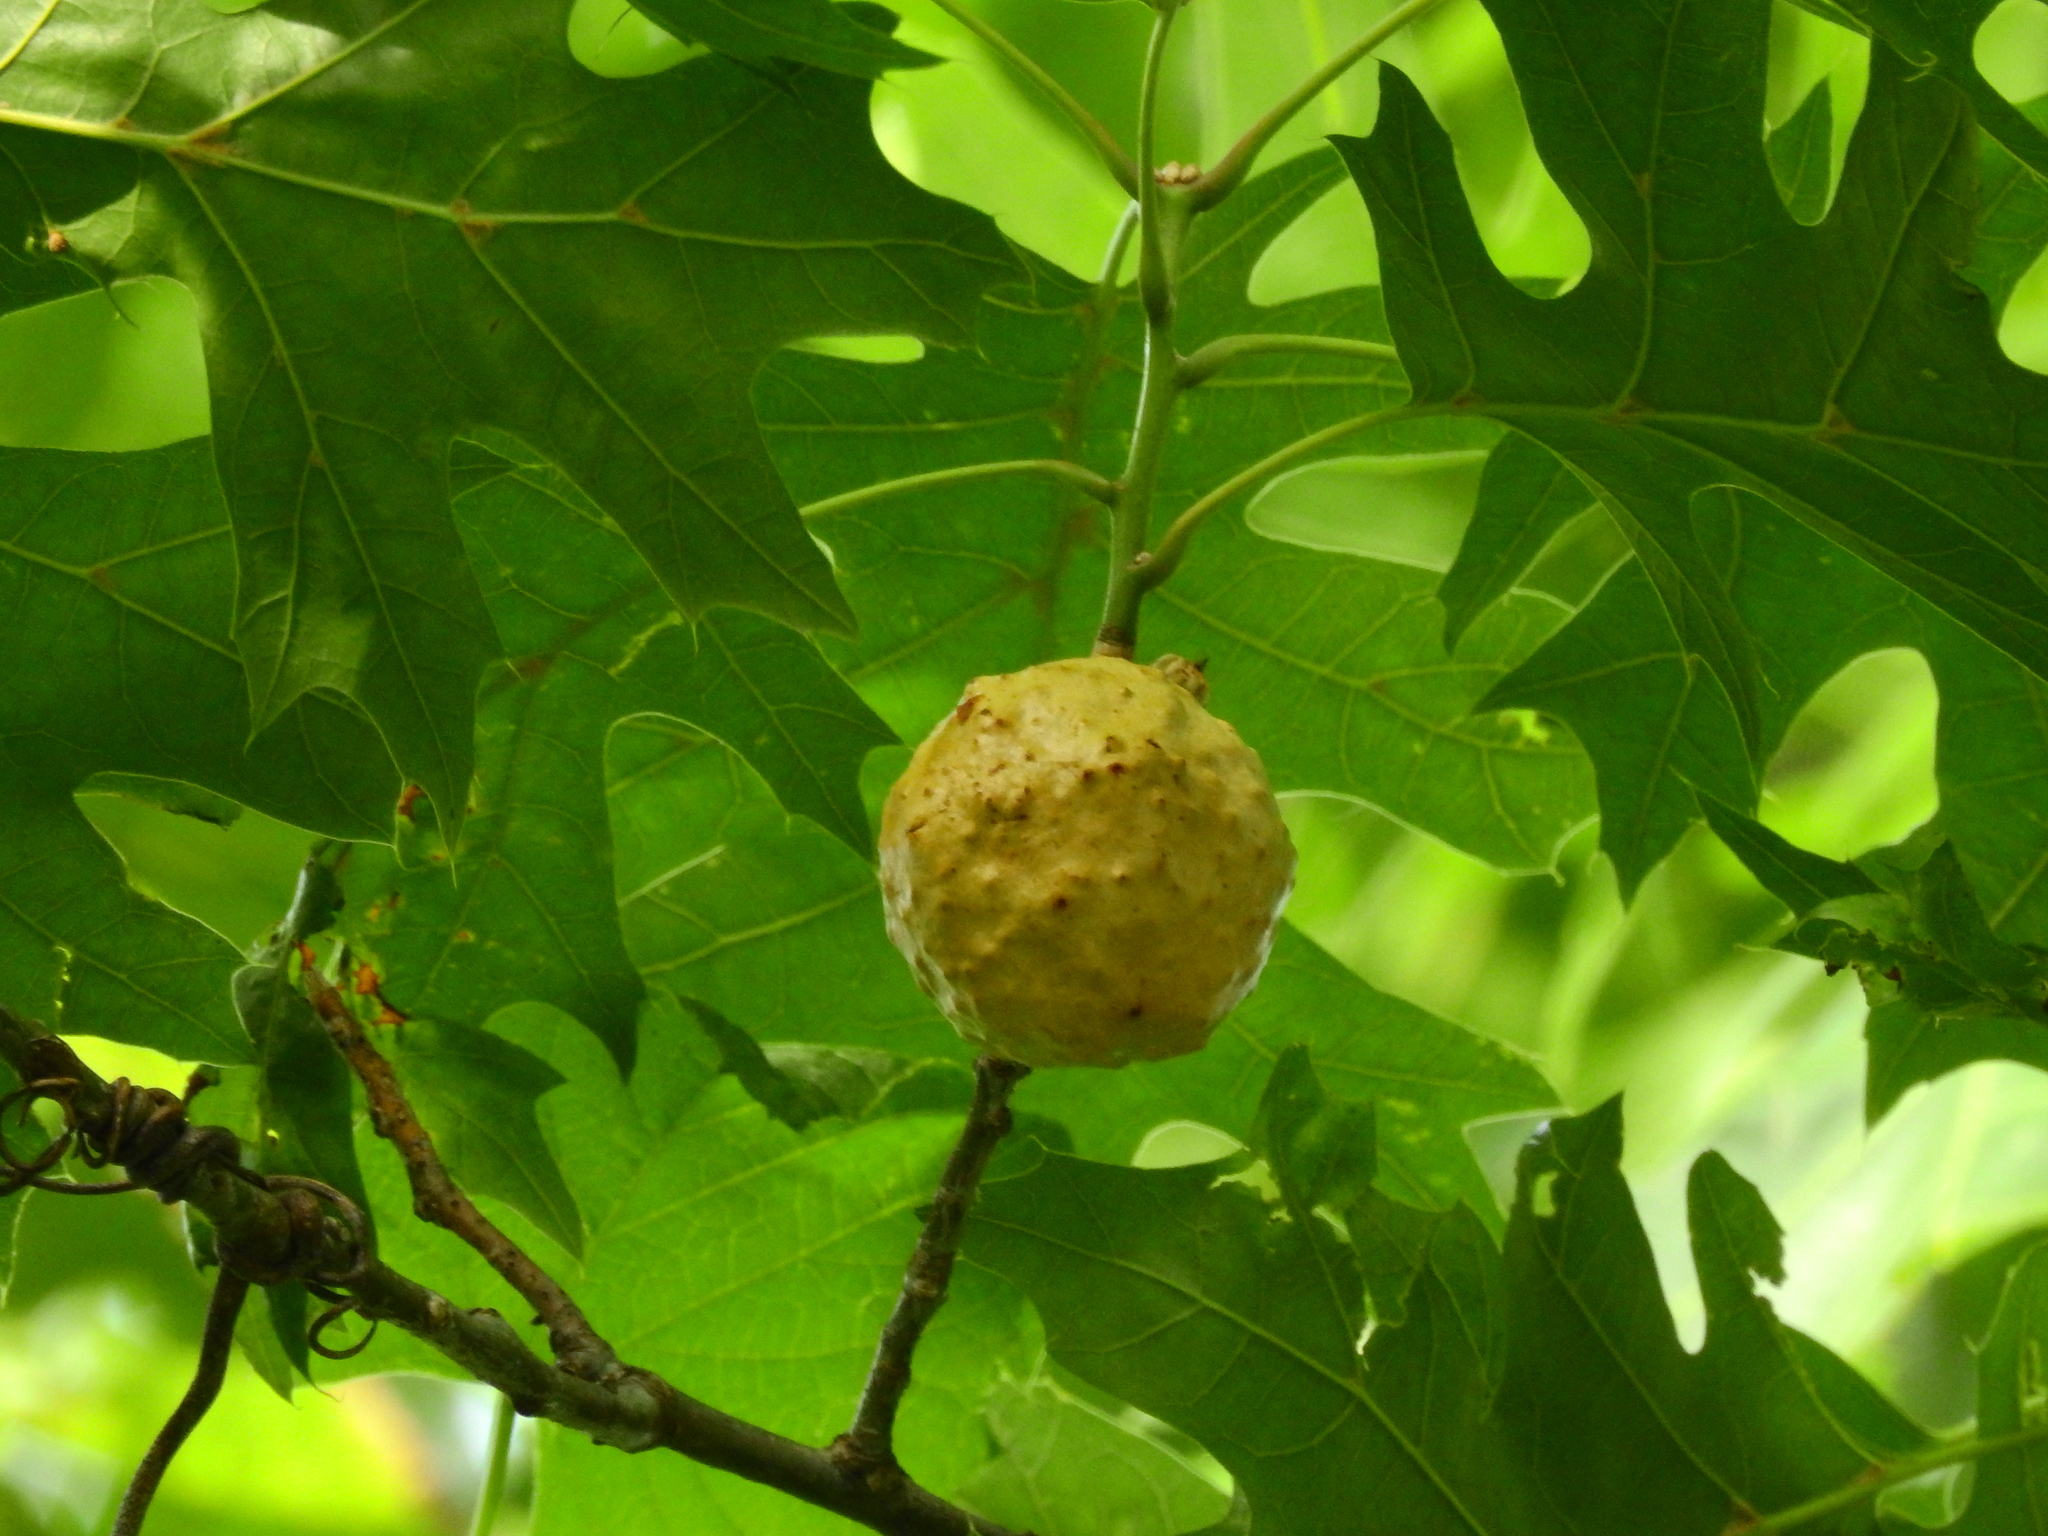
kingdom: Animalia
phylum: Arthropoda
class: Insecta
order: Hymenoptera
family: Cynipidae
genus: Amphibolips
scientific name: Amphibolips
